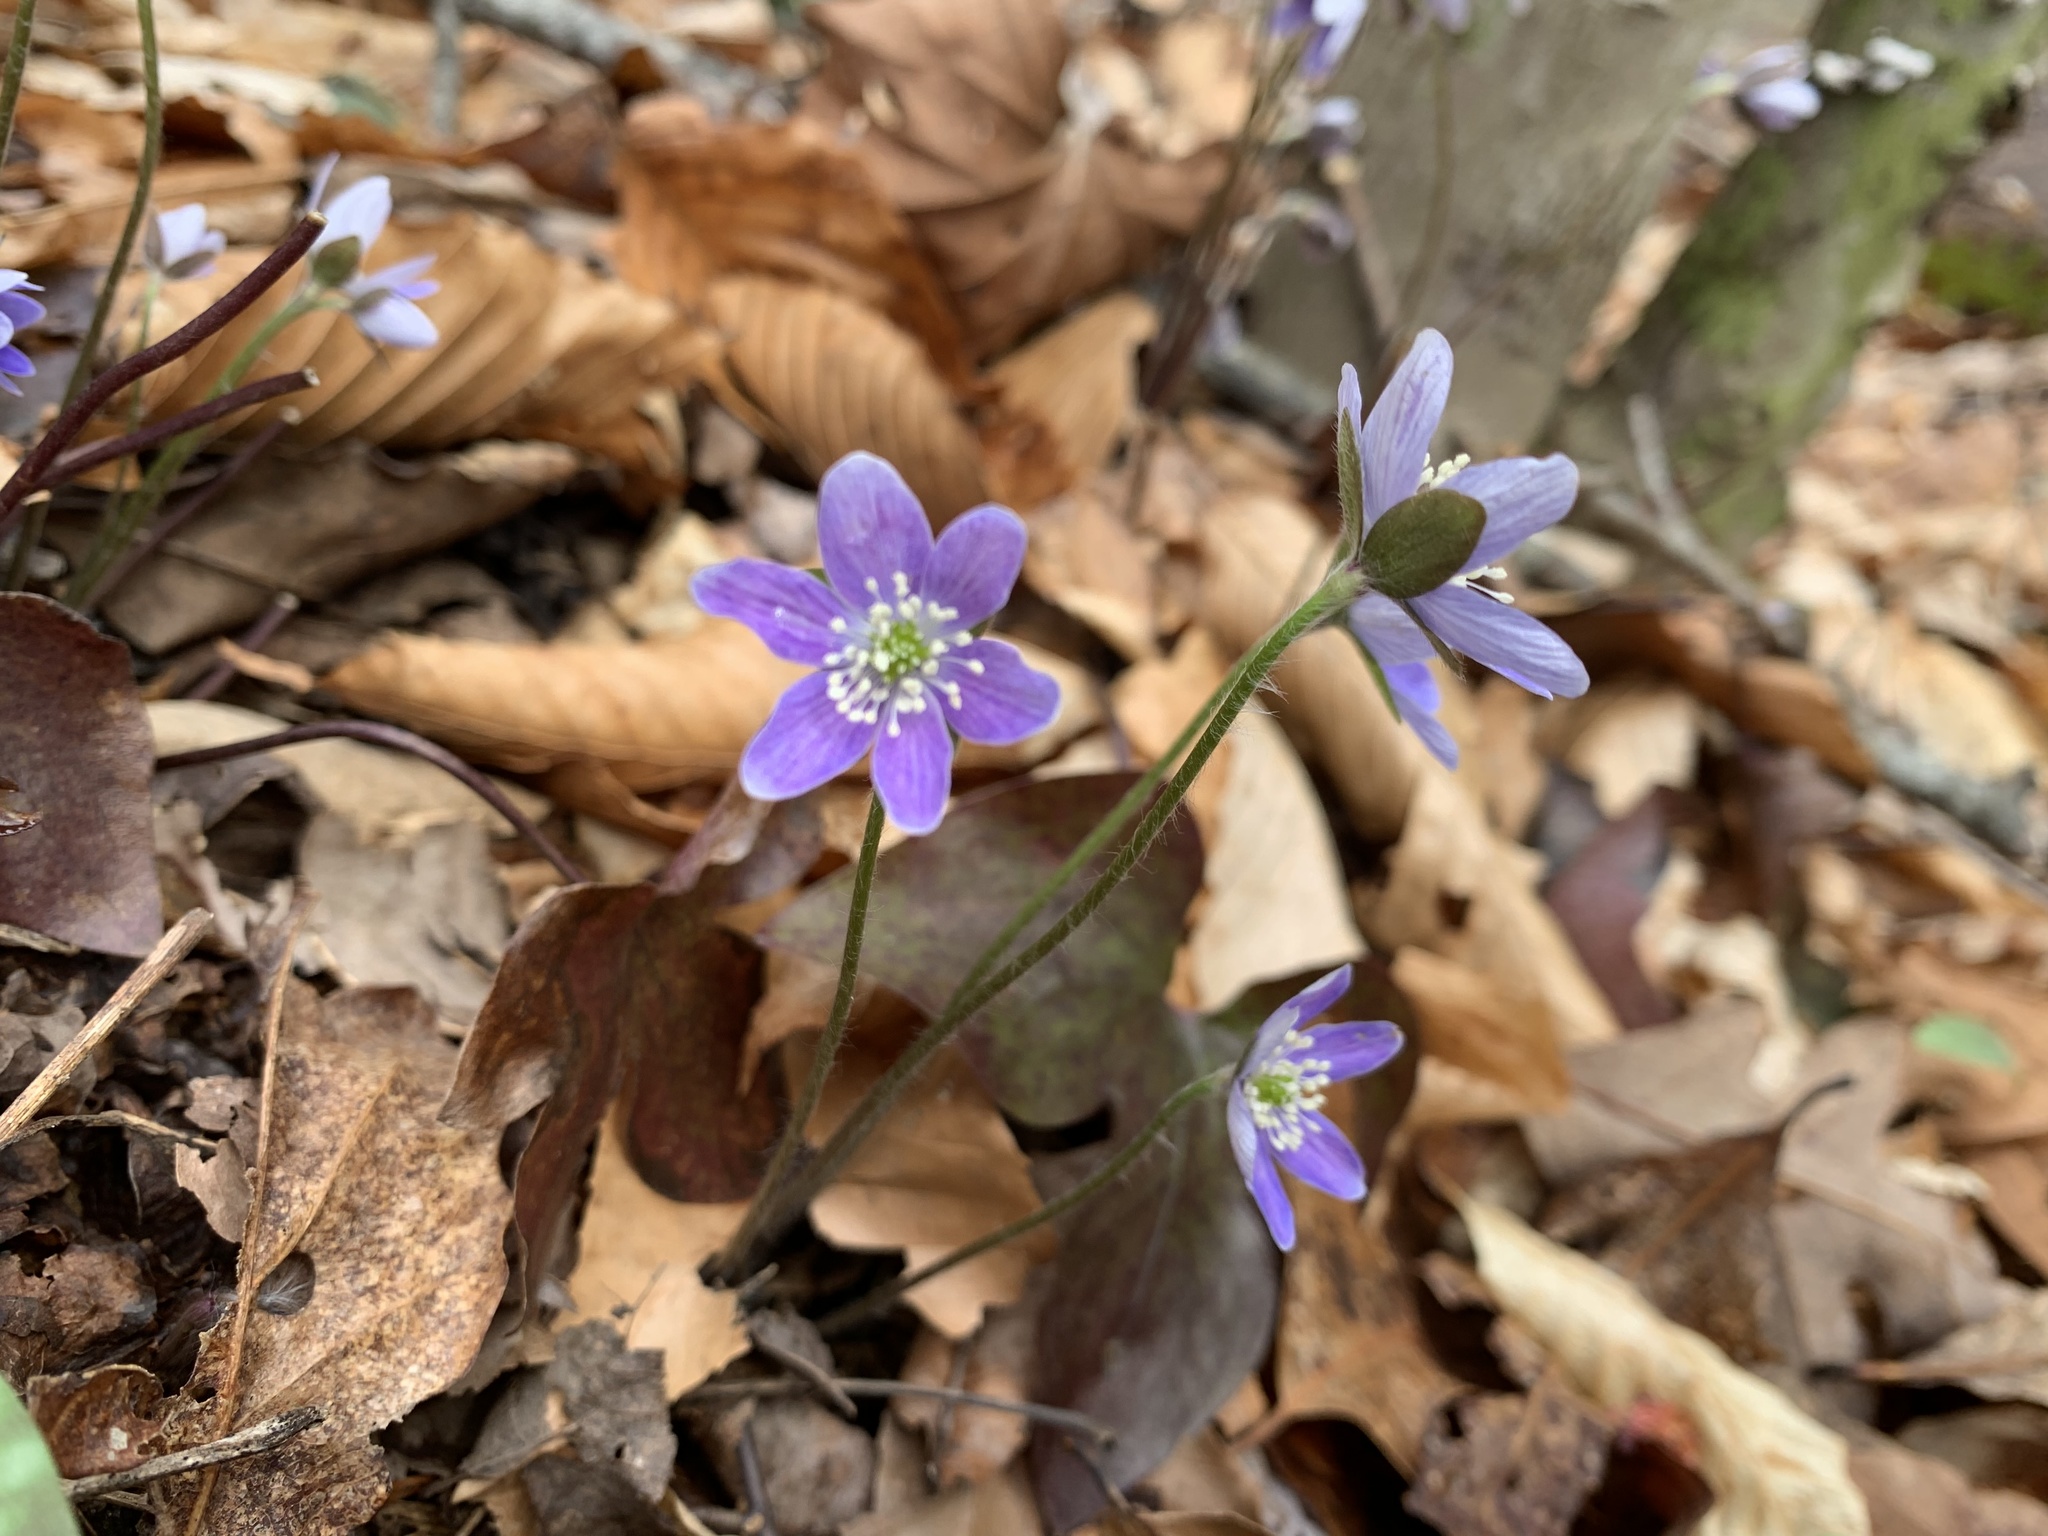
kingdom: Plantae
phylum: Tracheophyta
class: Magnoliopsida
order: Ranunculales
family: Ranunculaceae
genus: Hepatica
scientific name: Hepatica acutiloba
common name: Sharp-lobed hepatica
